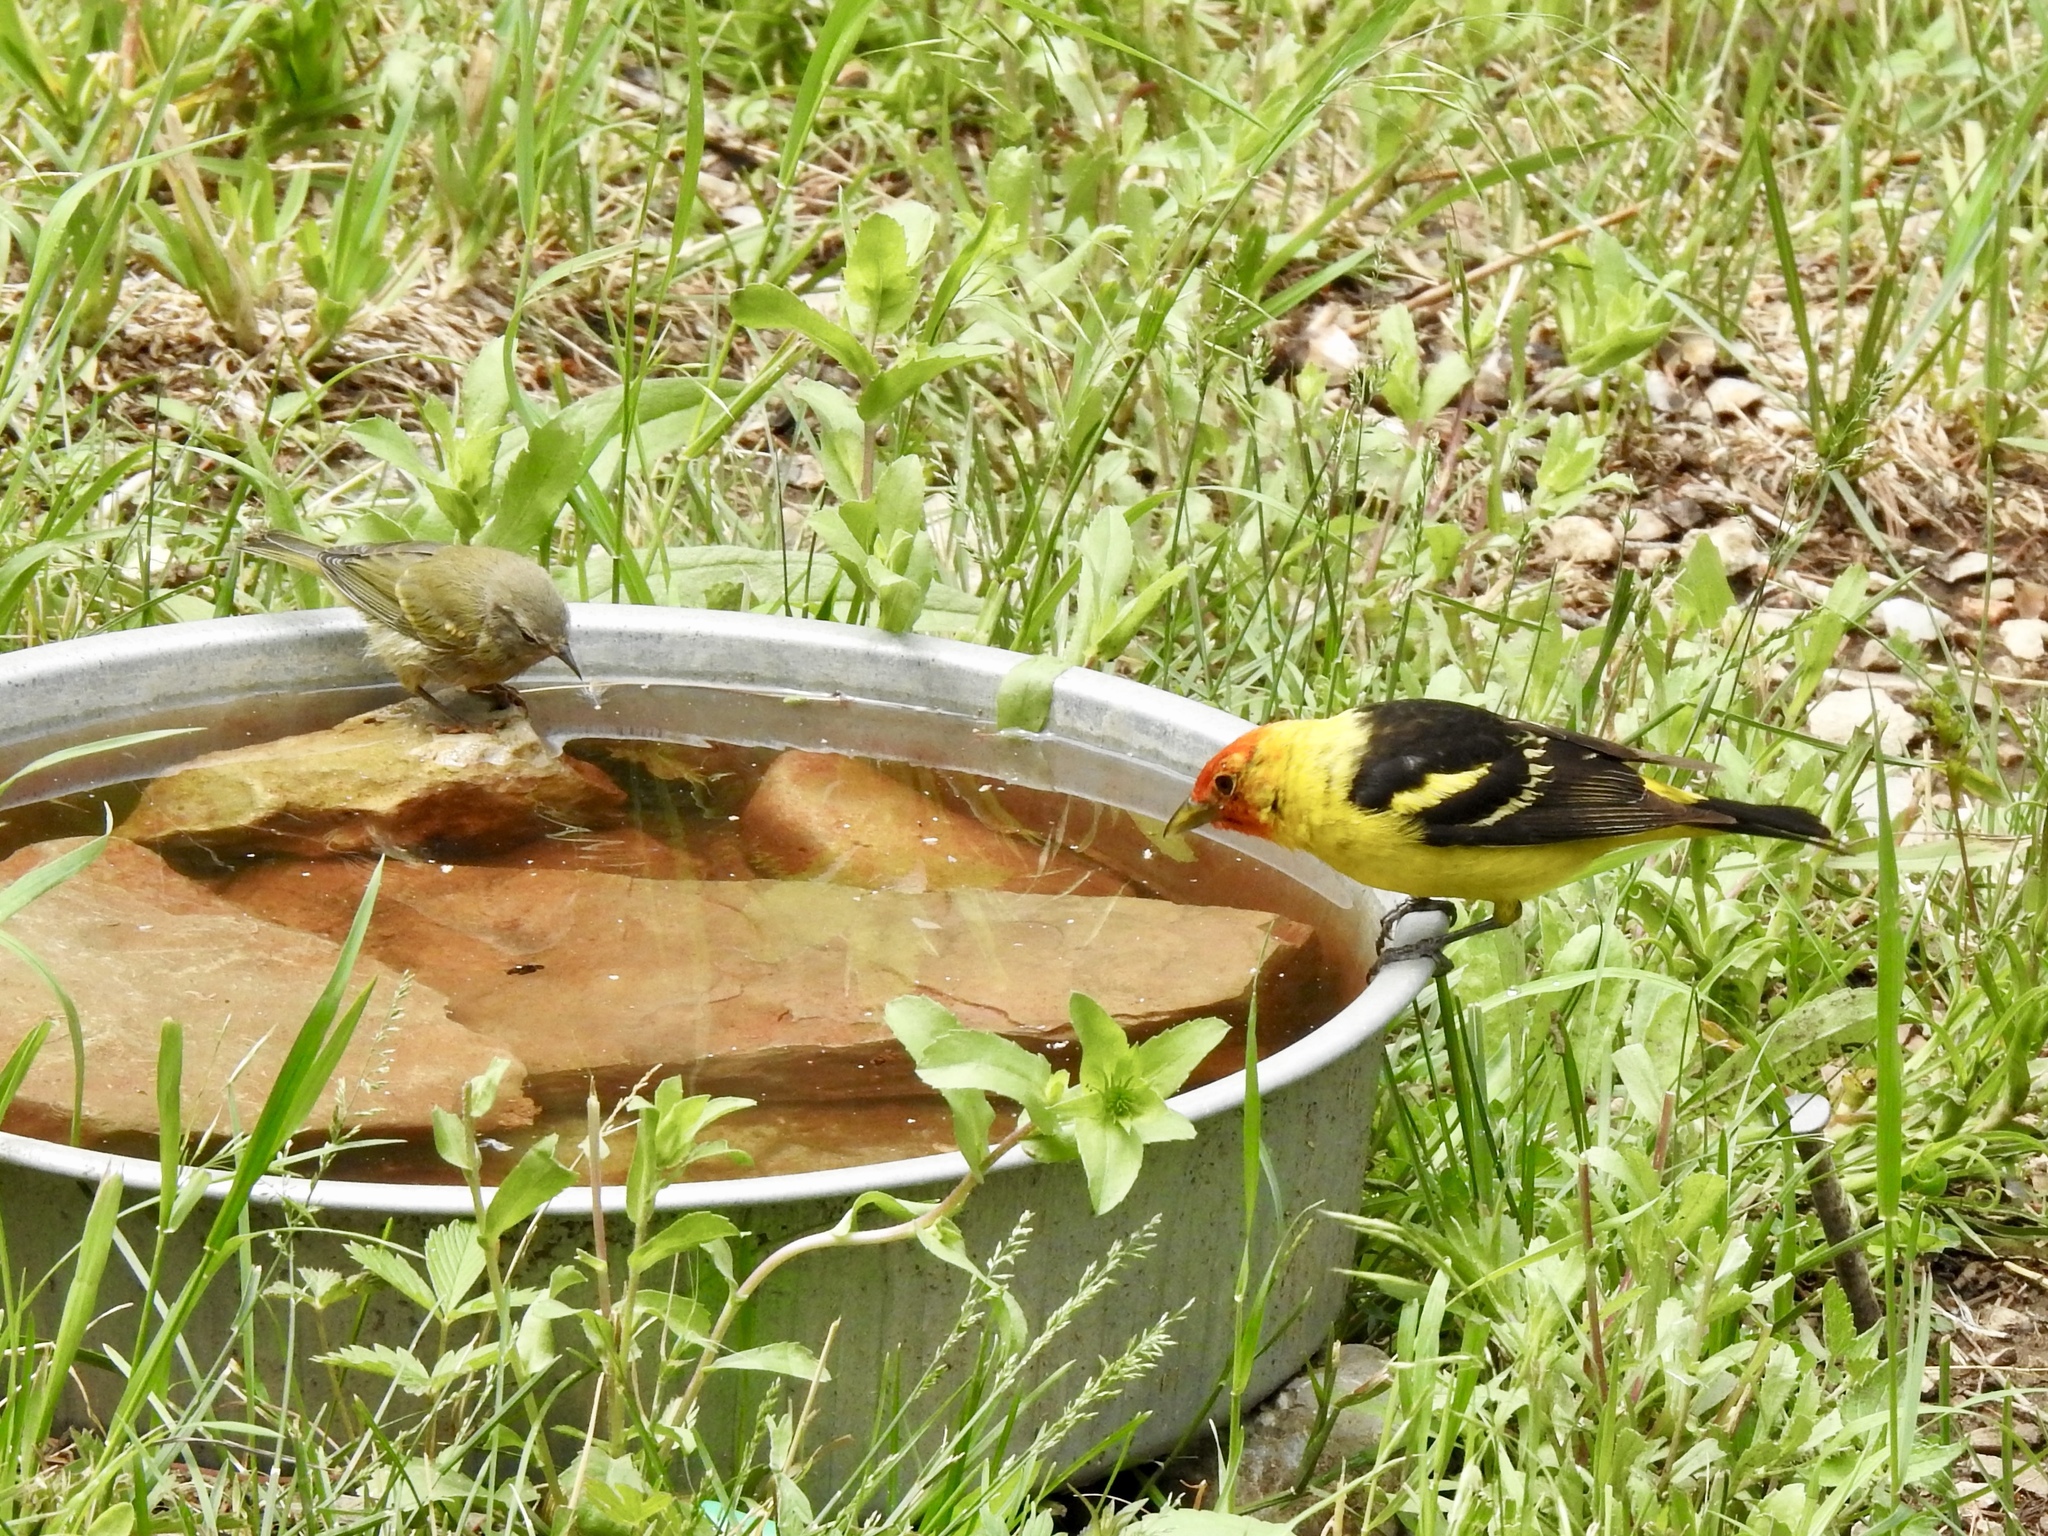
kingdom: Animalia
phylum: Chordata
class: Aves
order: Passeriformes
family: Cardinalidae
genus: Piranga
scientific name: Piranga ludoviciana
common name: Western tanager
